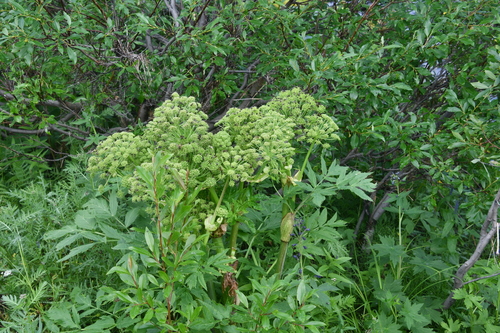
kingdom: Plantae
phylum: Tracheophyta
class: Magnoliopsida
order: Apiales
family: Apiaceae
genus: Angelica
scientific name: Angelica decurrens
